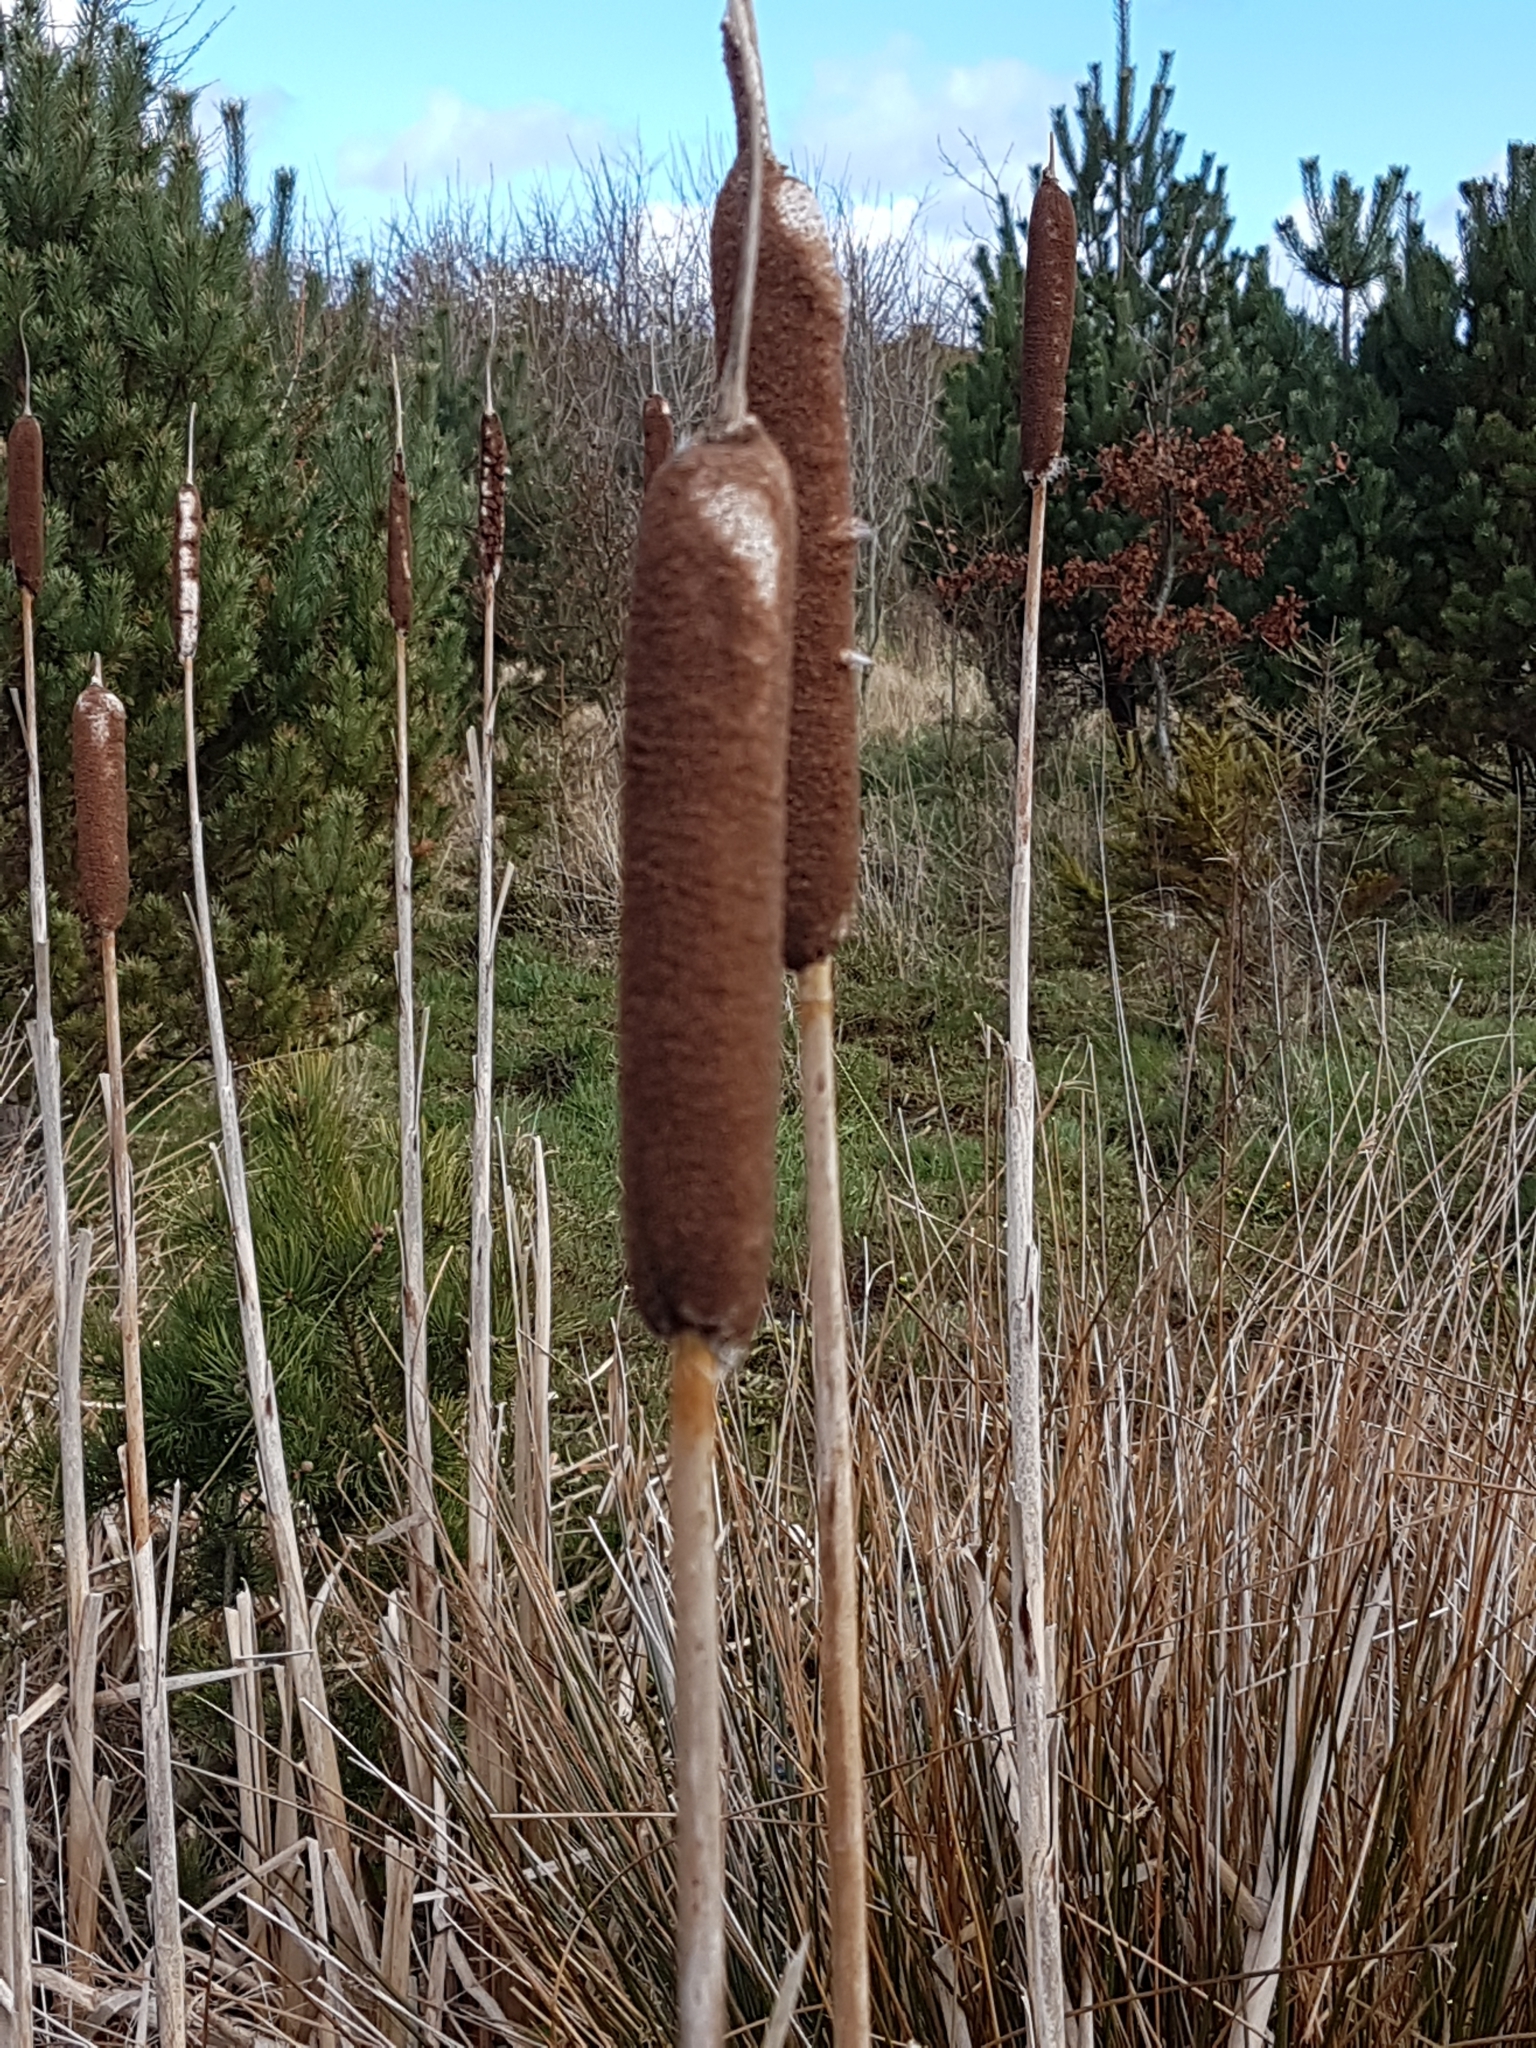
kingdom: Plantae
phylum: Tracheophyta
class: Liliopsida
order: Poales
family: Typhaceae
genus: Typha
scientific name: Typha latifolia
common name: Broadleaf cattail
